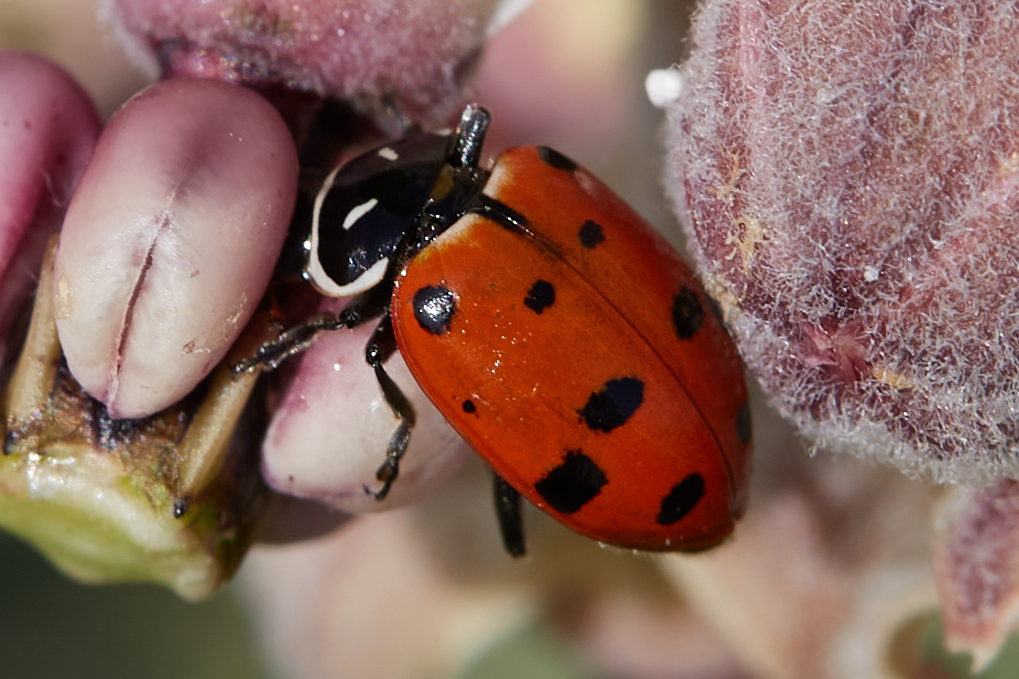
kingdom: Animalia
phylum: Arthropoda
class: Insecta
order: Coleoptera
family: Coccinellidae
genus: Hippodamia
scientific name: Hippodamia convergens
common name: Convergent lady beetle
